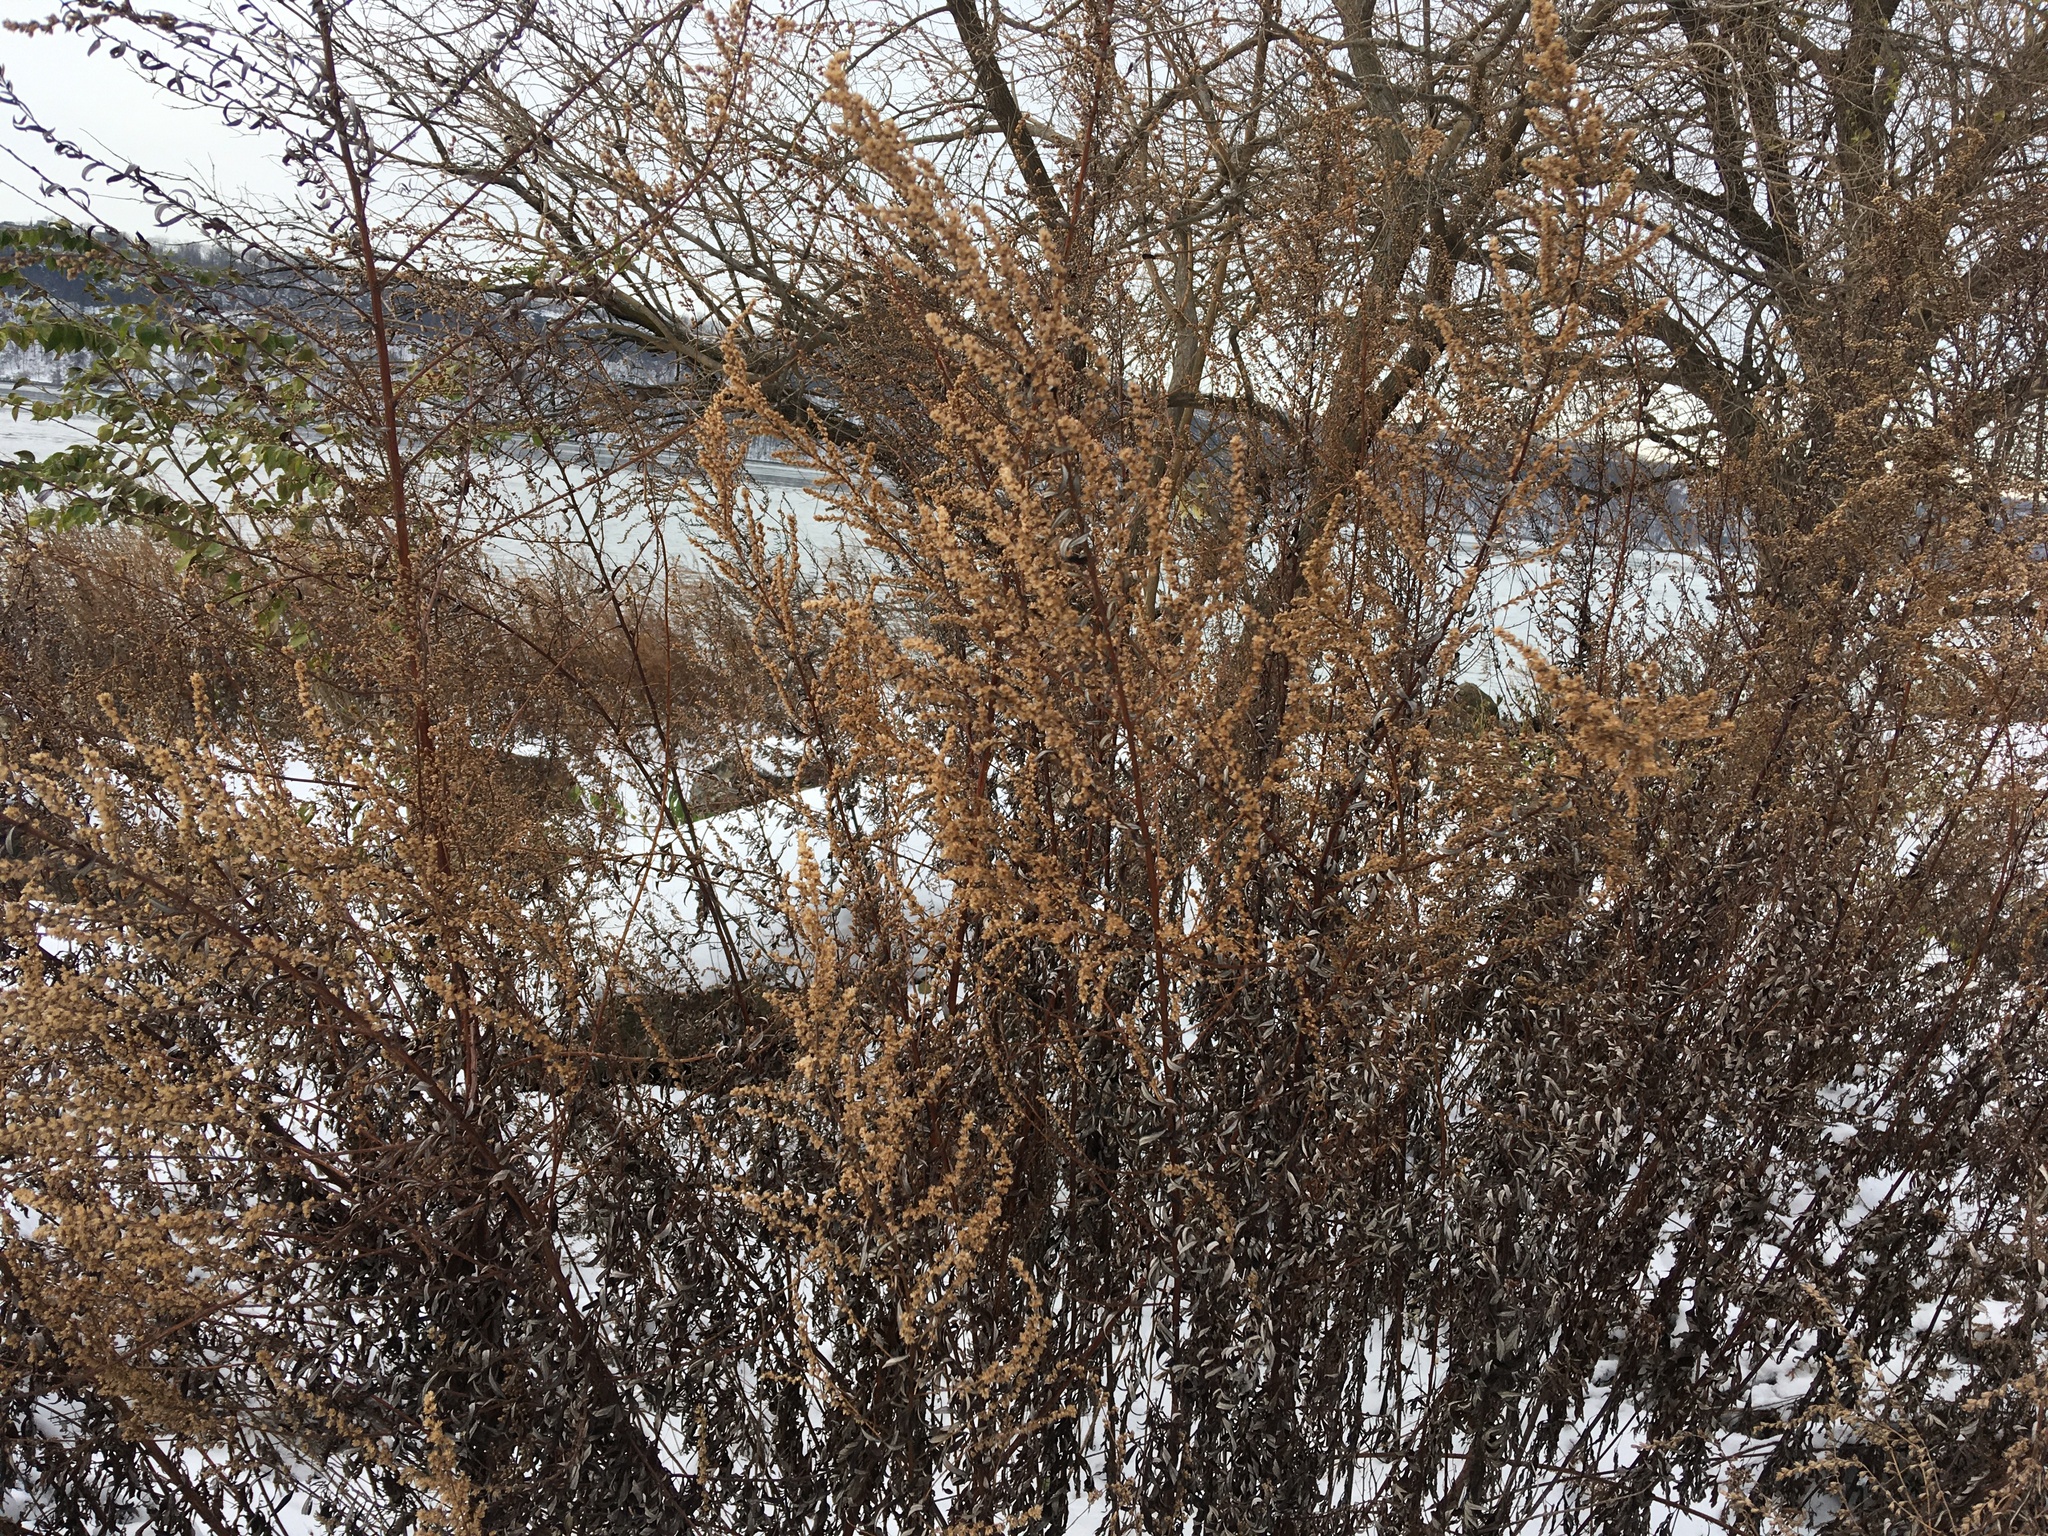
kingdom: Plantae
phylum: Tracheophyta
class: Magnoliopsida
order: Asterales
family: Asteraceae
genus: Artemisia
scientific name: Artemisia vulgaris
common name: Mugwort
